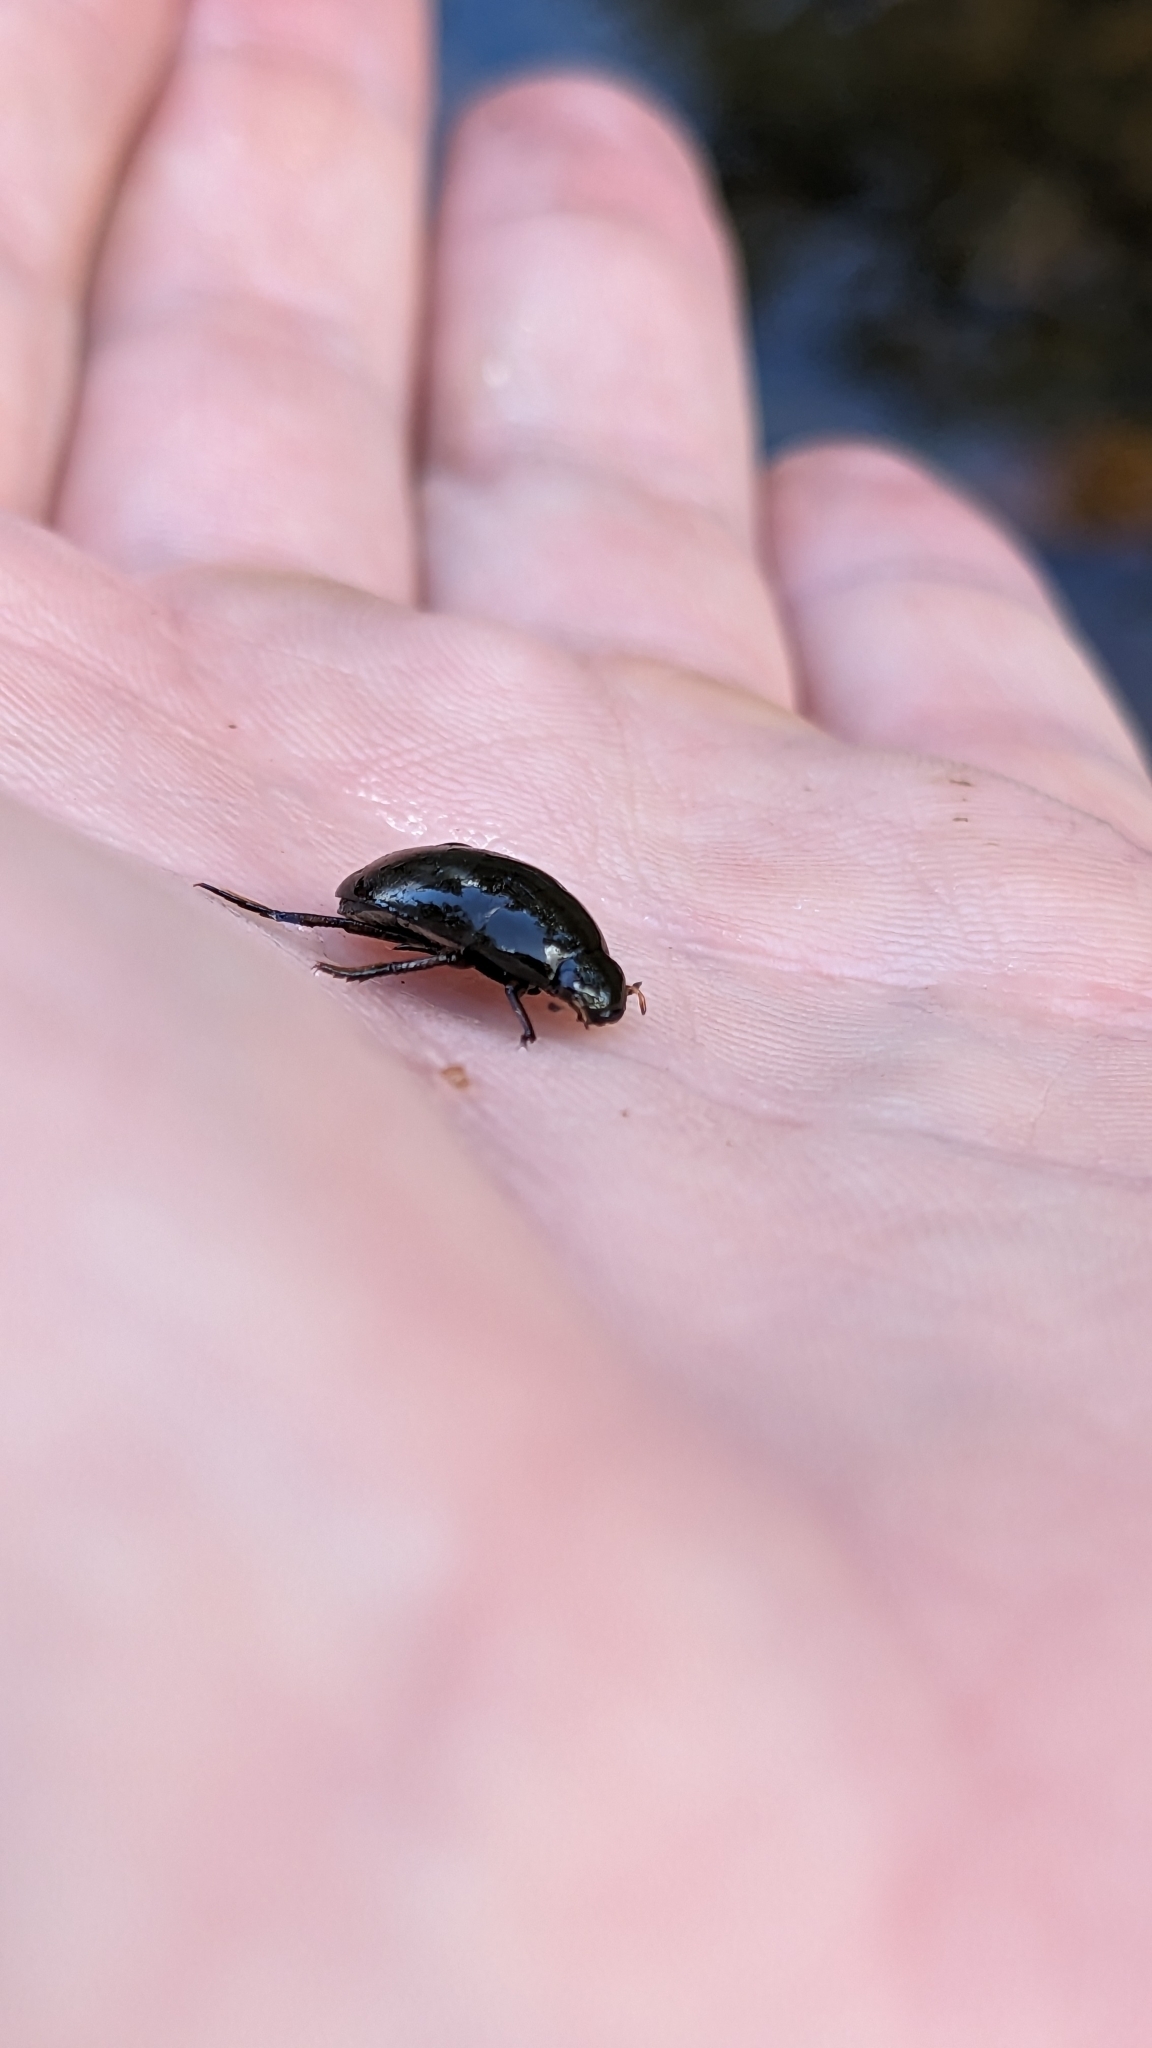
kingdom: Animalia
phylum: Arthropoda
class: Insecta
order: Coleoptera
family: Hydrophilidae
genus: Tropisternus
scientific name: Tropisternus
